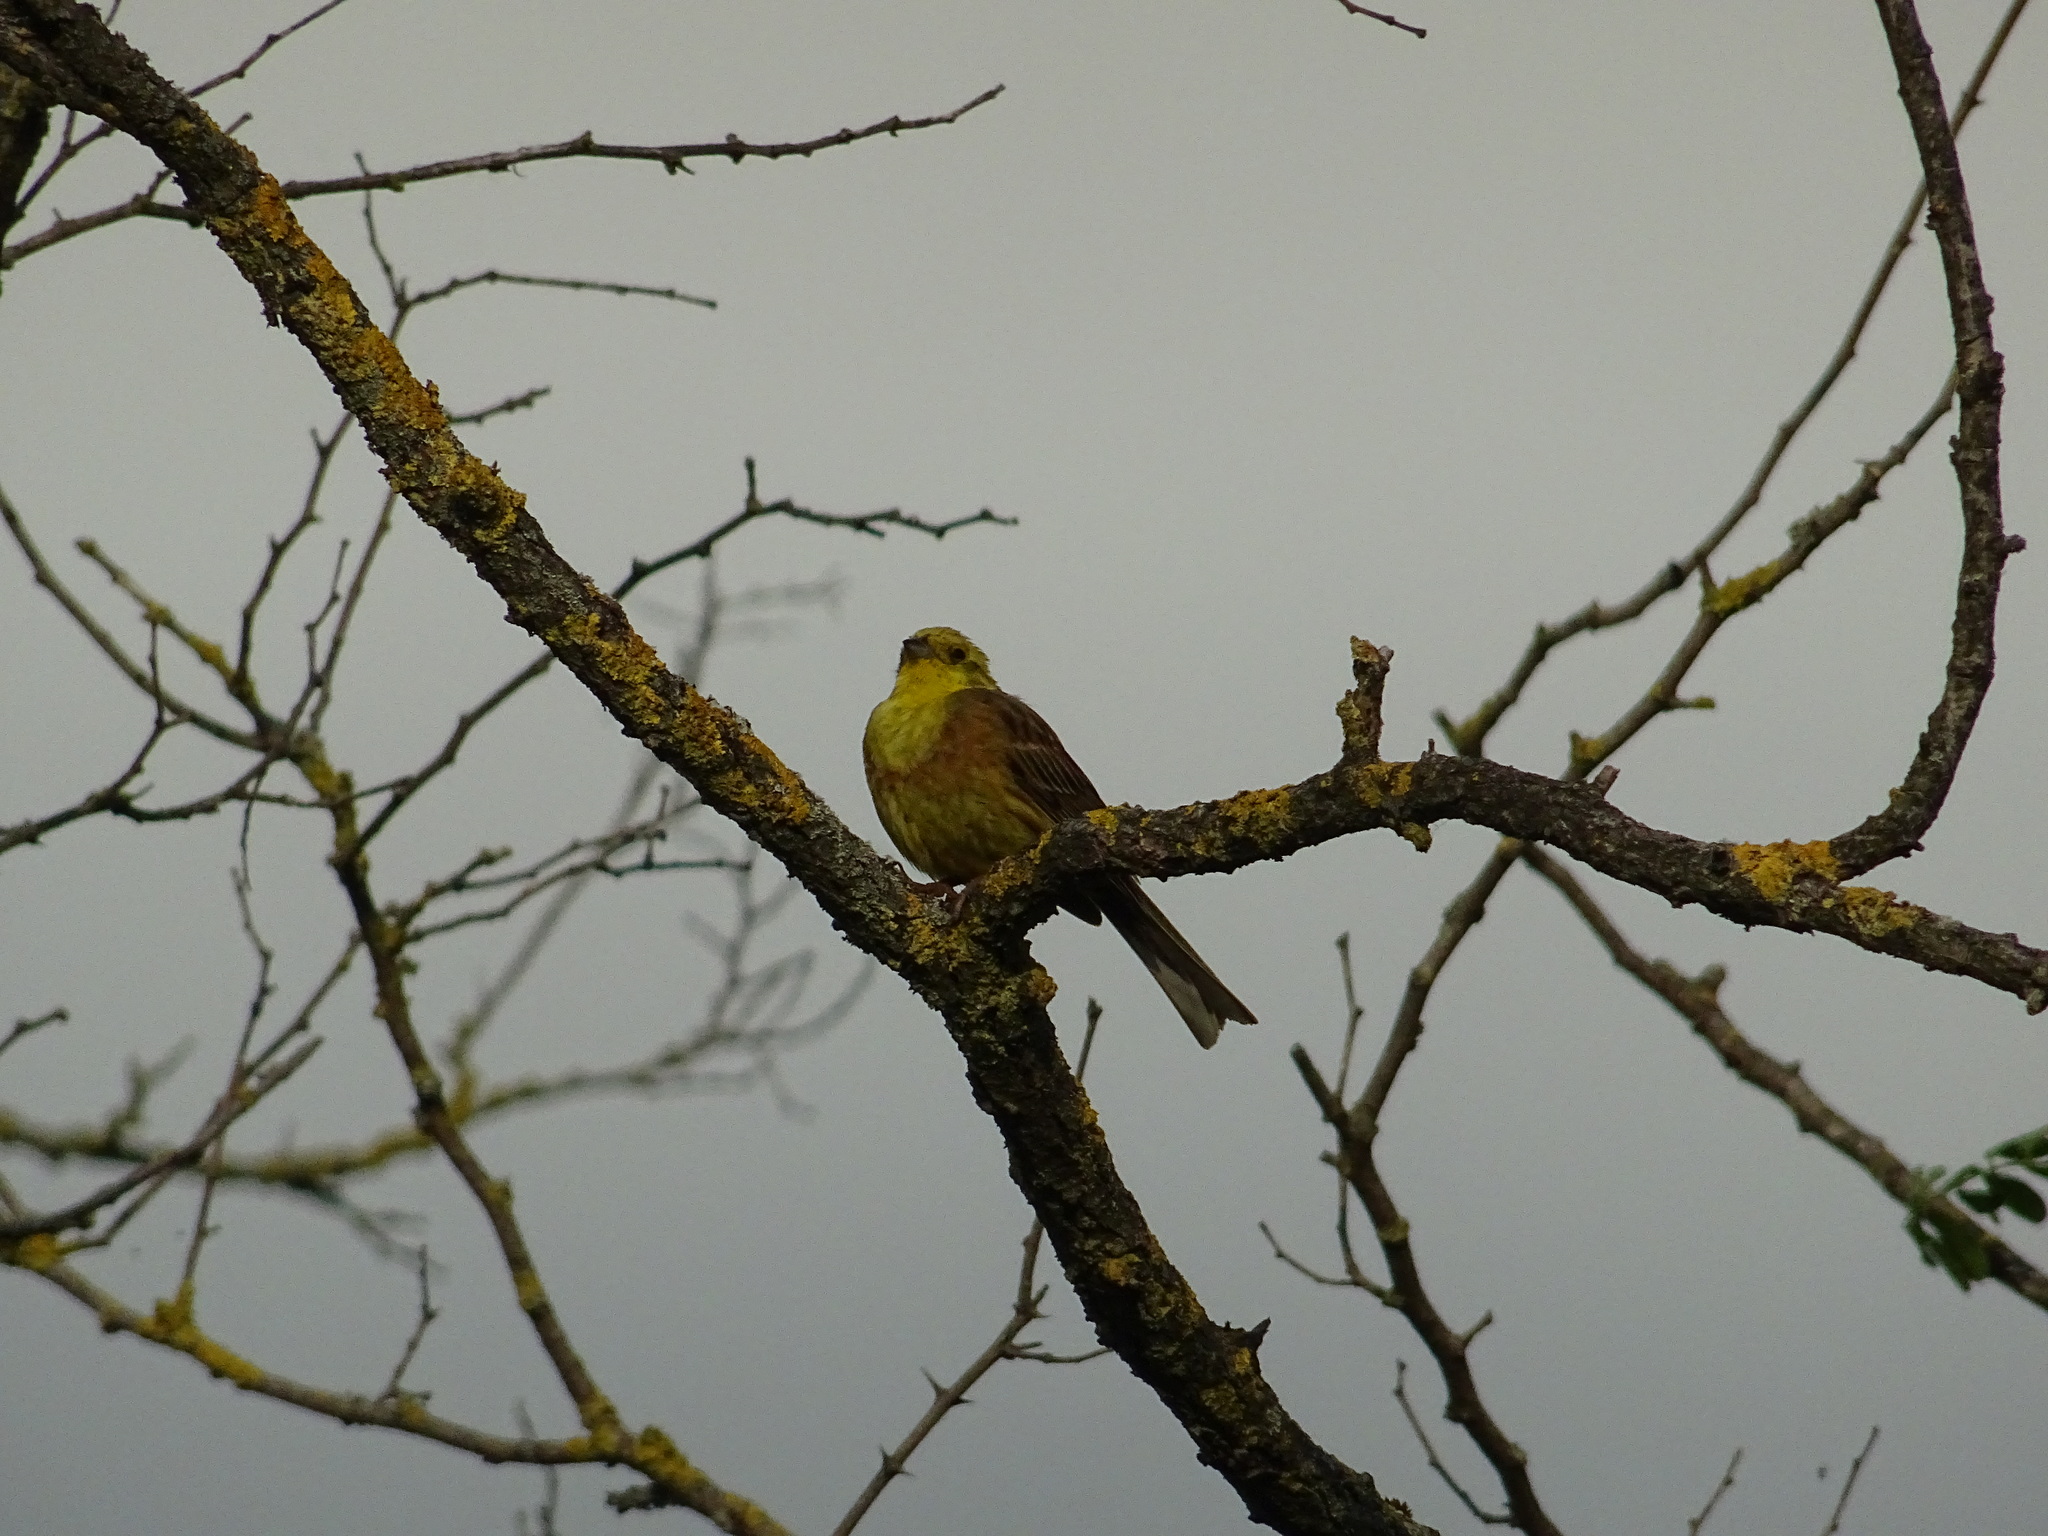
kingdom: Animalia
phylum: Chordata
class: Aves
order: Passeriformes
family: Emberizidae
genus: Emberiza
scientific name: Emberiza citrinella
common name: Yellowhammer
